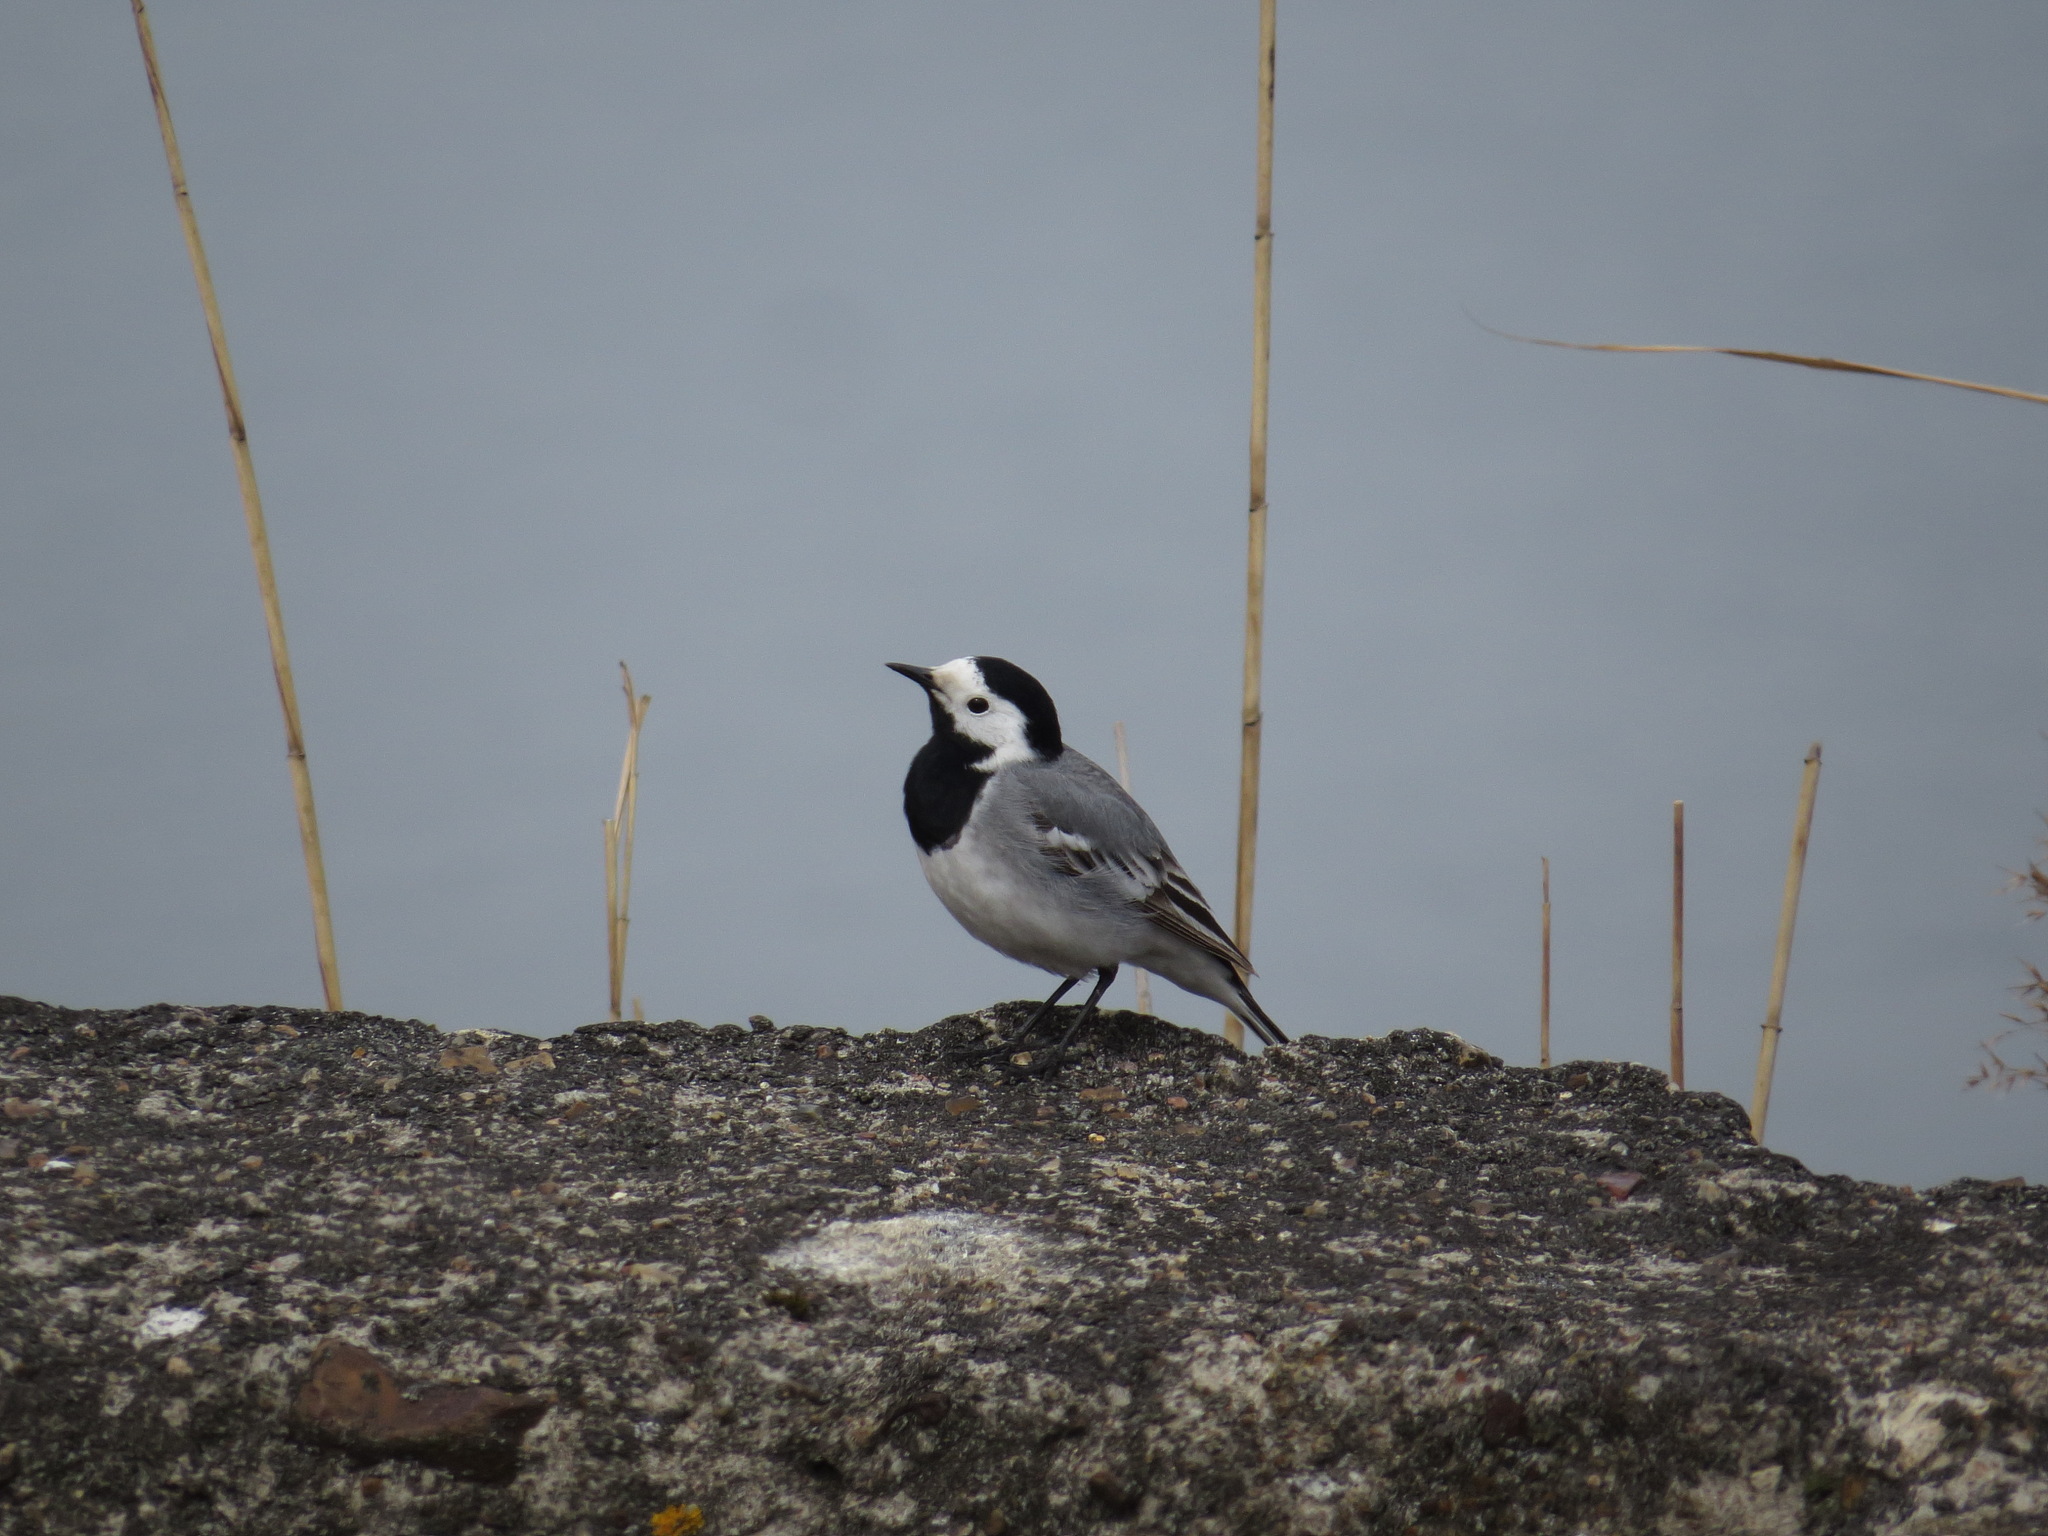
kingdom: Animalia
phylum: Chordata
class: Aves
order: Passeriformes
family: Motacillidae
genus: Motacilla
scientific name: Motacilla alba
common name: White wagtail
